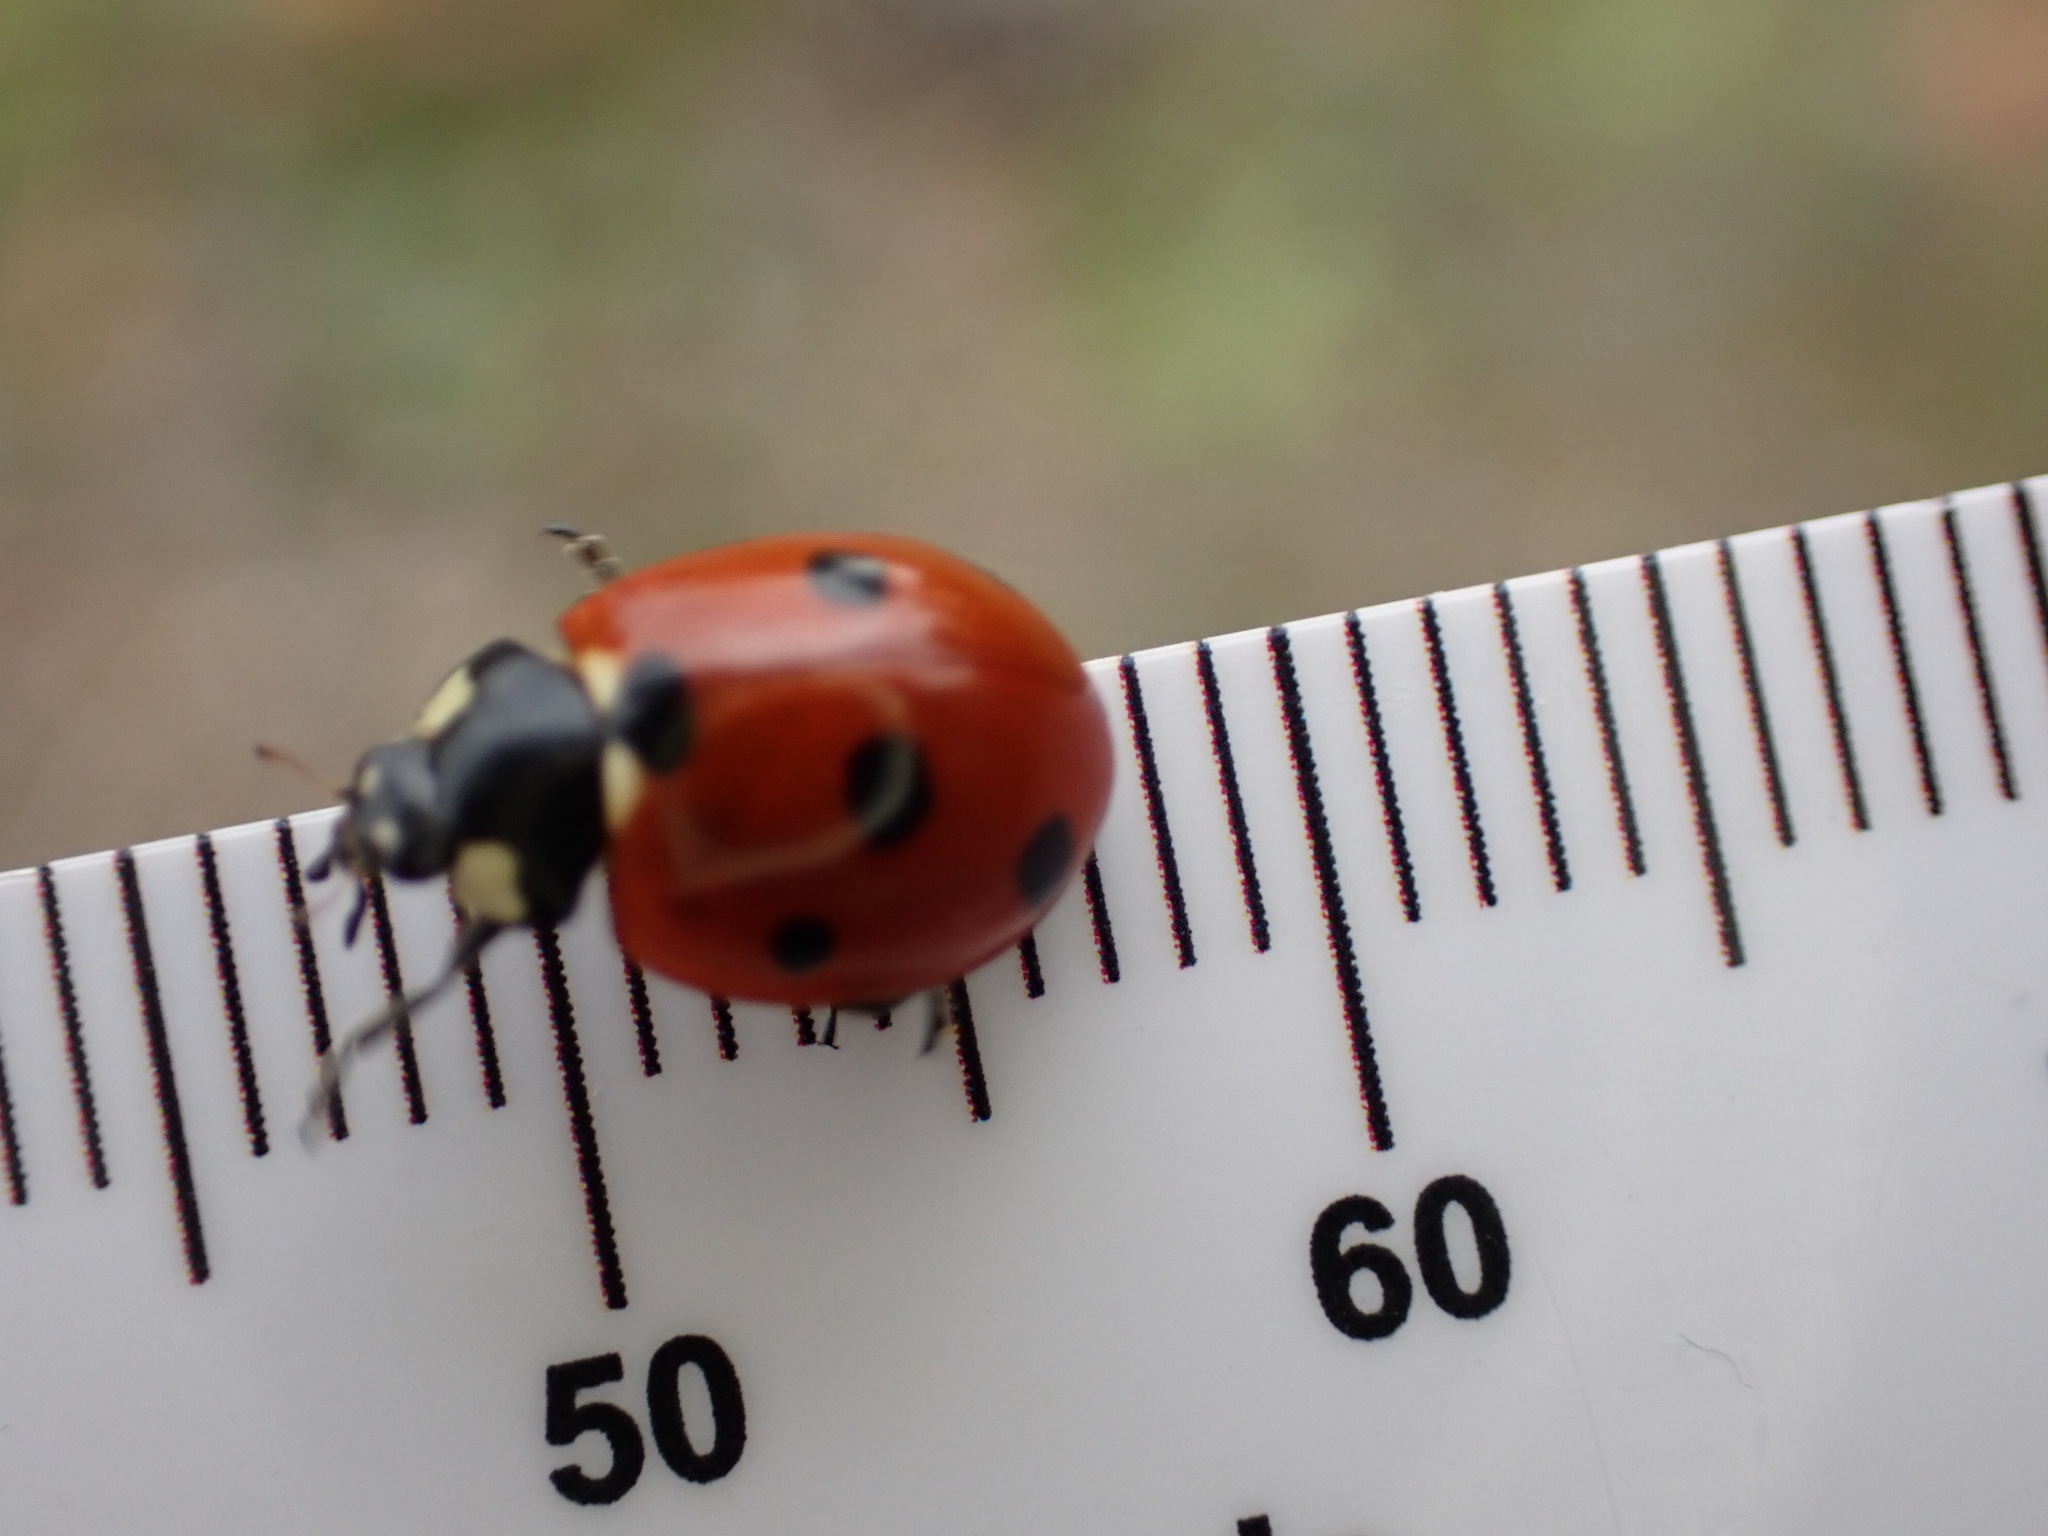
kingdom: Animalia
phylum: Arthropoda
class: Insecta
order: Coleoptera
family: Coccinellidae
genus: Coccinella
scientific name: Coccinella septempunctata
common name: Sevenspotted lady beetle
